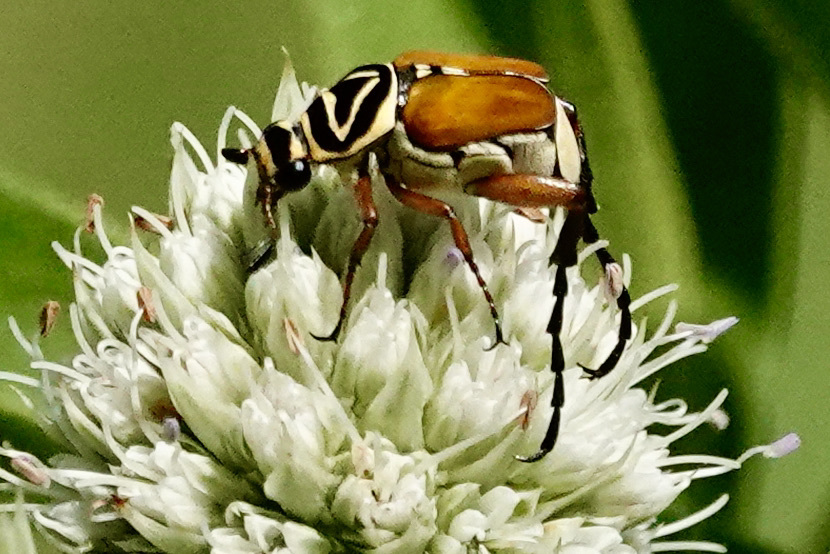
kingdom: Animalia
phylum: Arthropoda
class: Insecta
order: Coleoptera
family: Scarabaeidae
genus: Trigonopeltastes
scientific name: Trigonopeltastes delta
